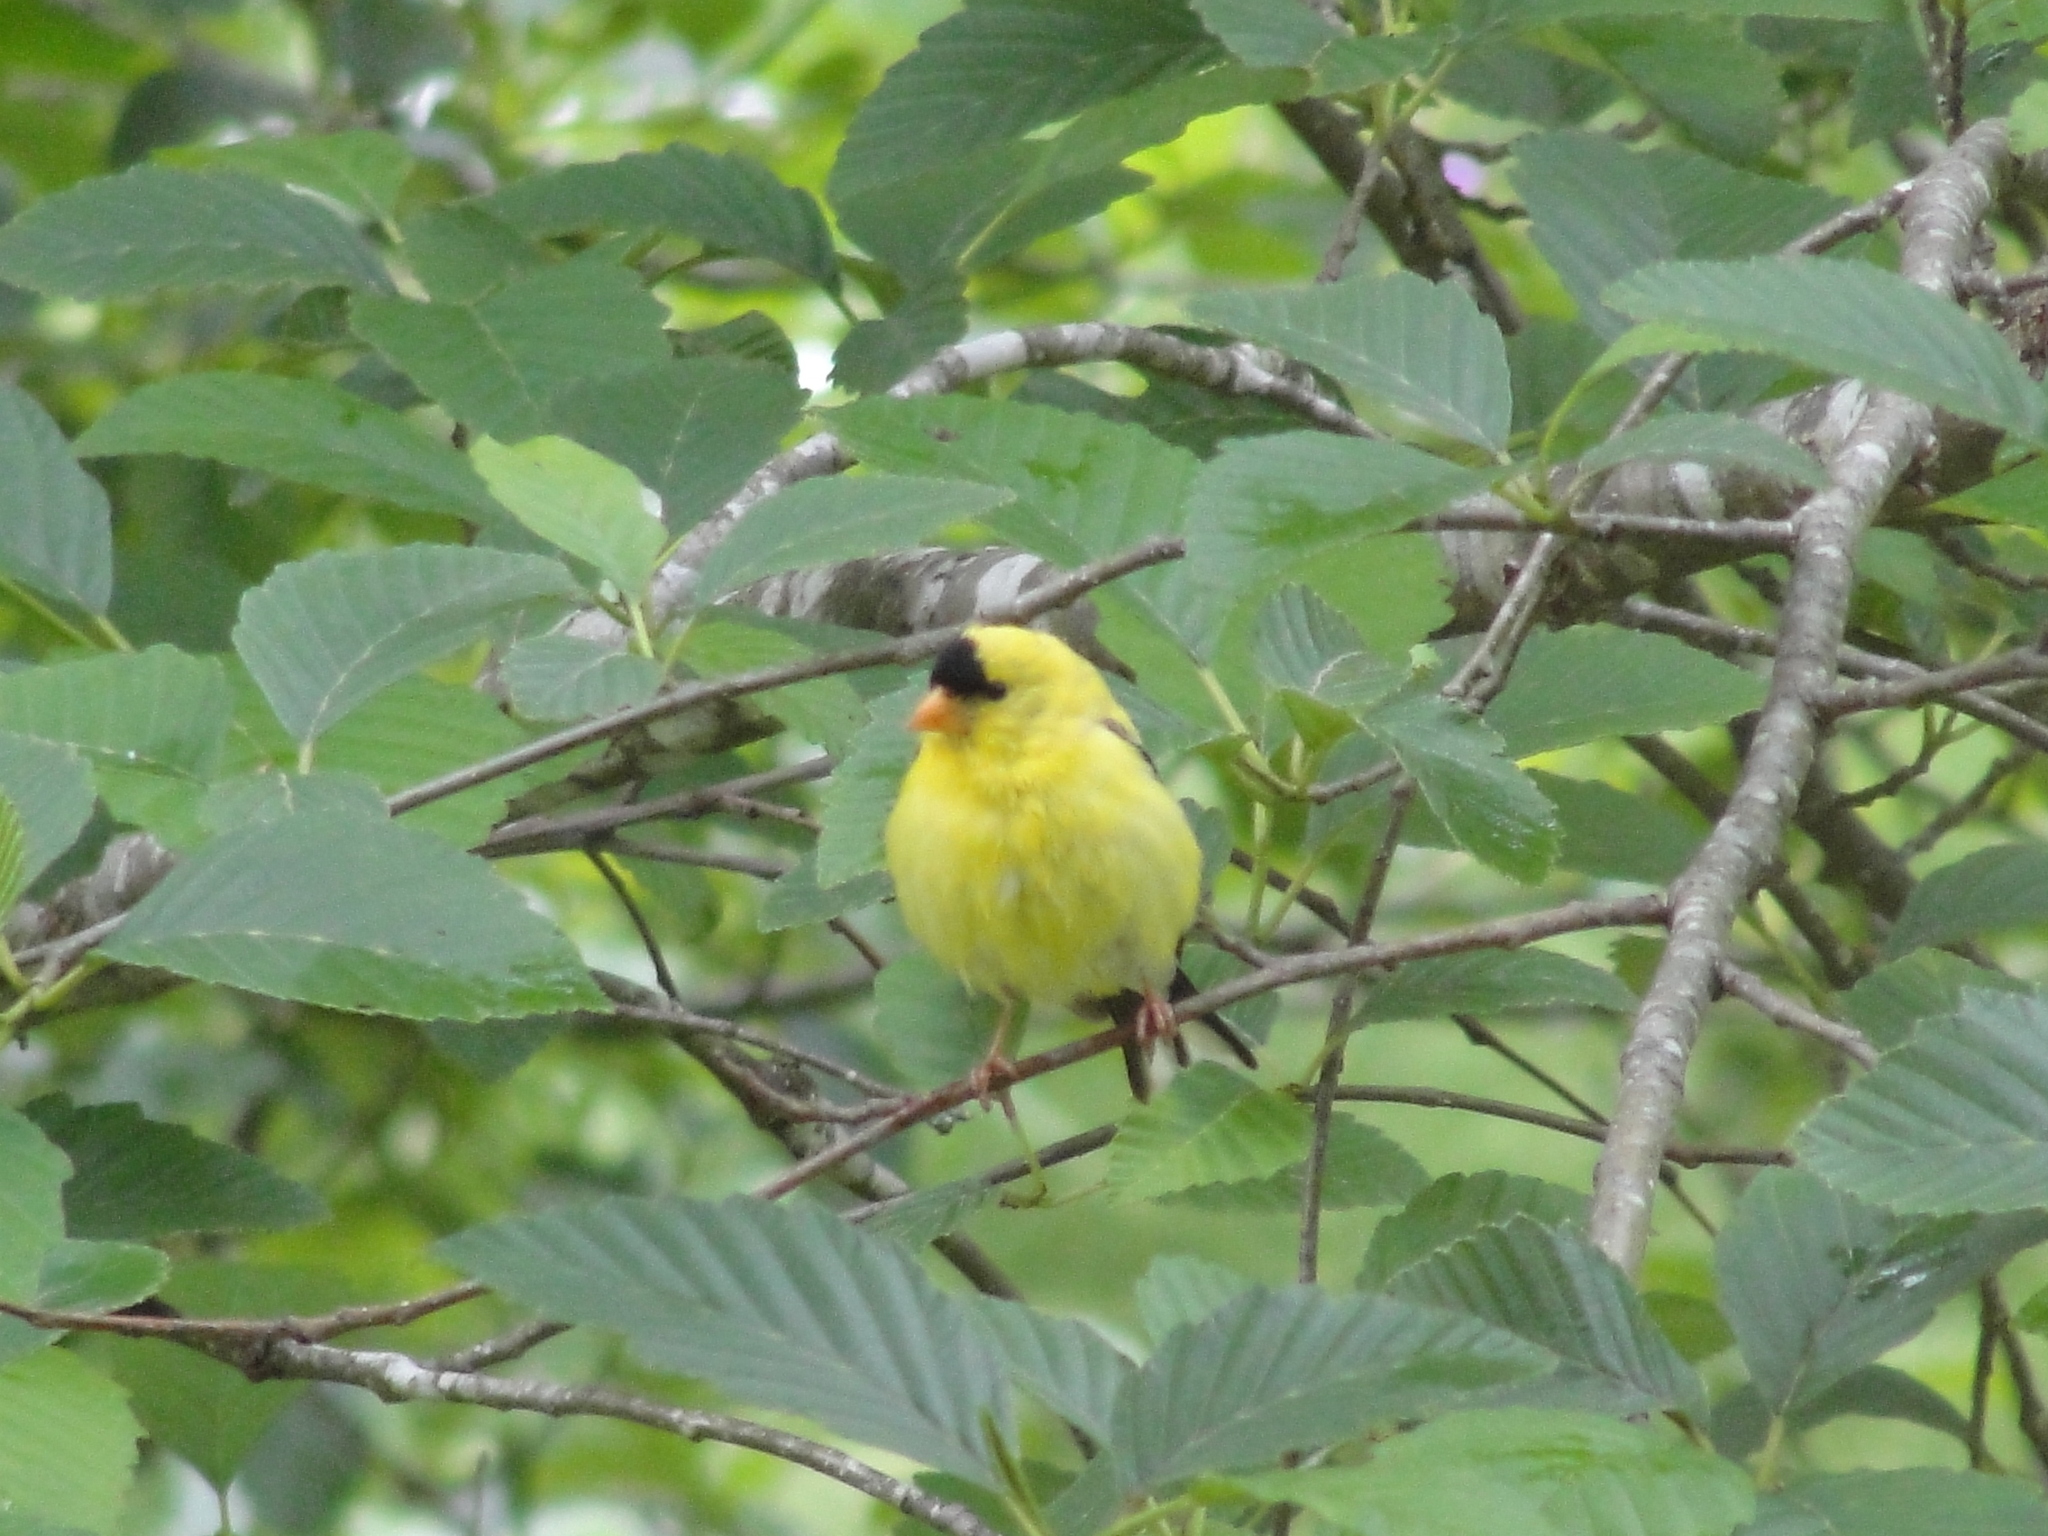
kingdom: Animalia
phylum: Chordata
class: Aves
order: Passeriformes
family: Fringillidae
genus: Spinus
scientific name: Spinus tristis
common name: American goldfinch
